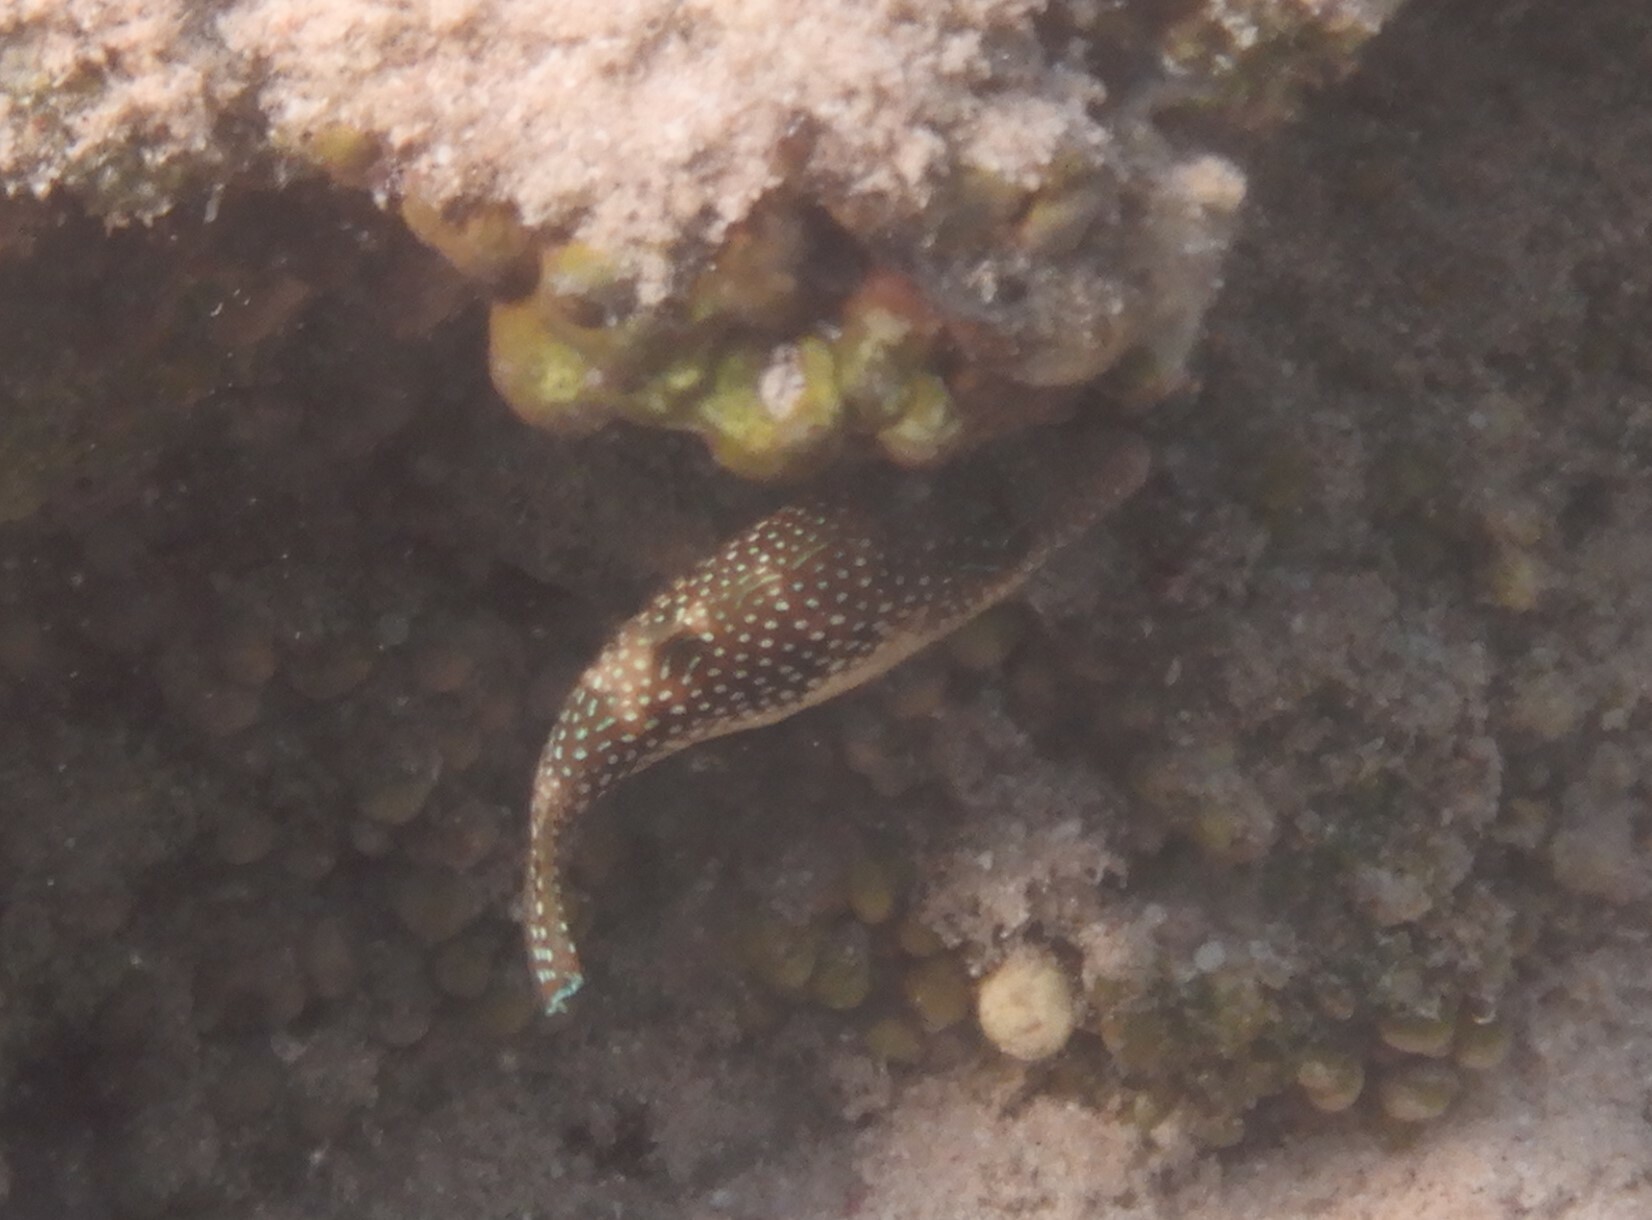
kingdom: Animalia
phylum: Chordata
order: Tetraodontiformes
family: Tetraodontidae
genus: Canthigaster
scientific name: Canthigaster margaritata
